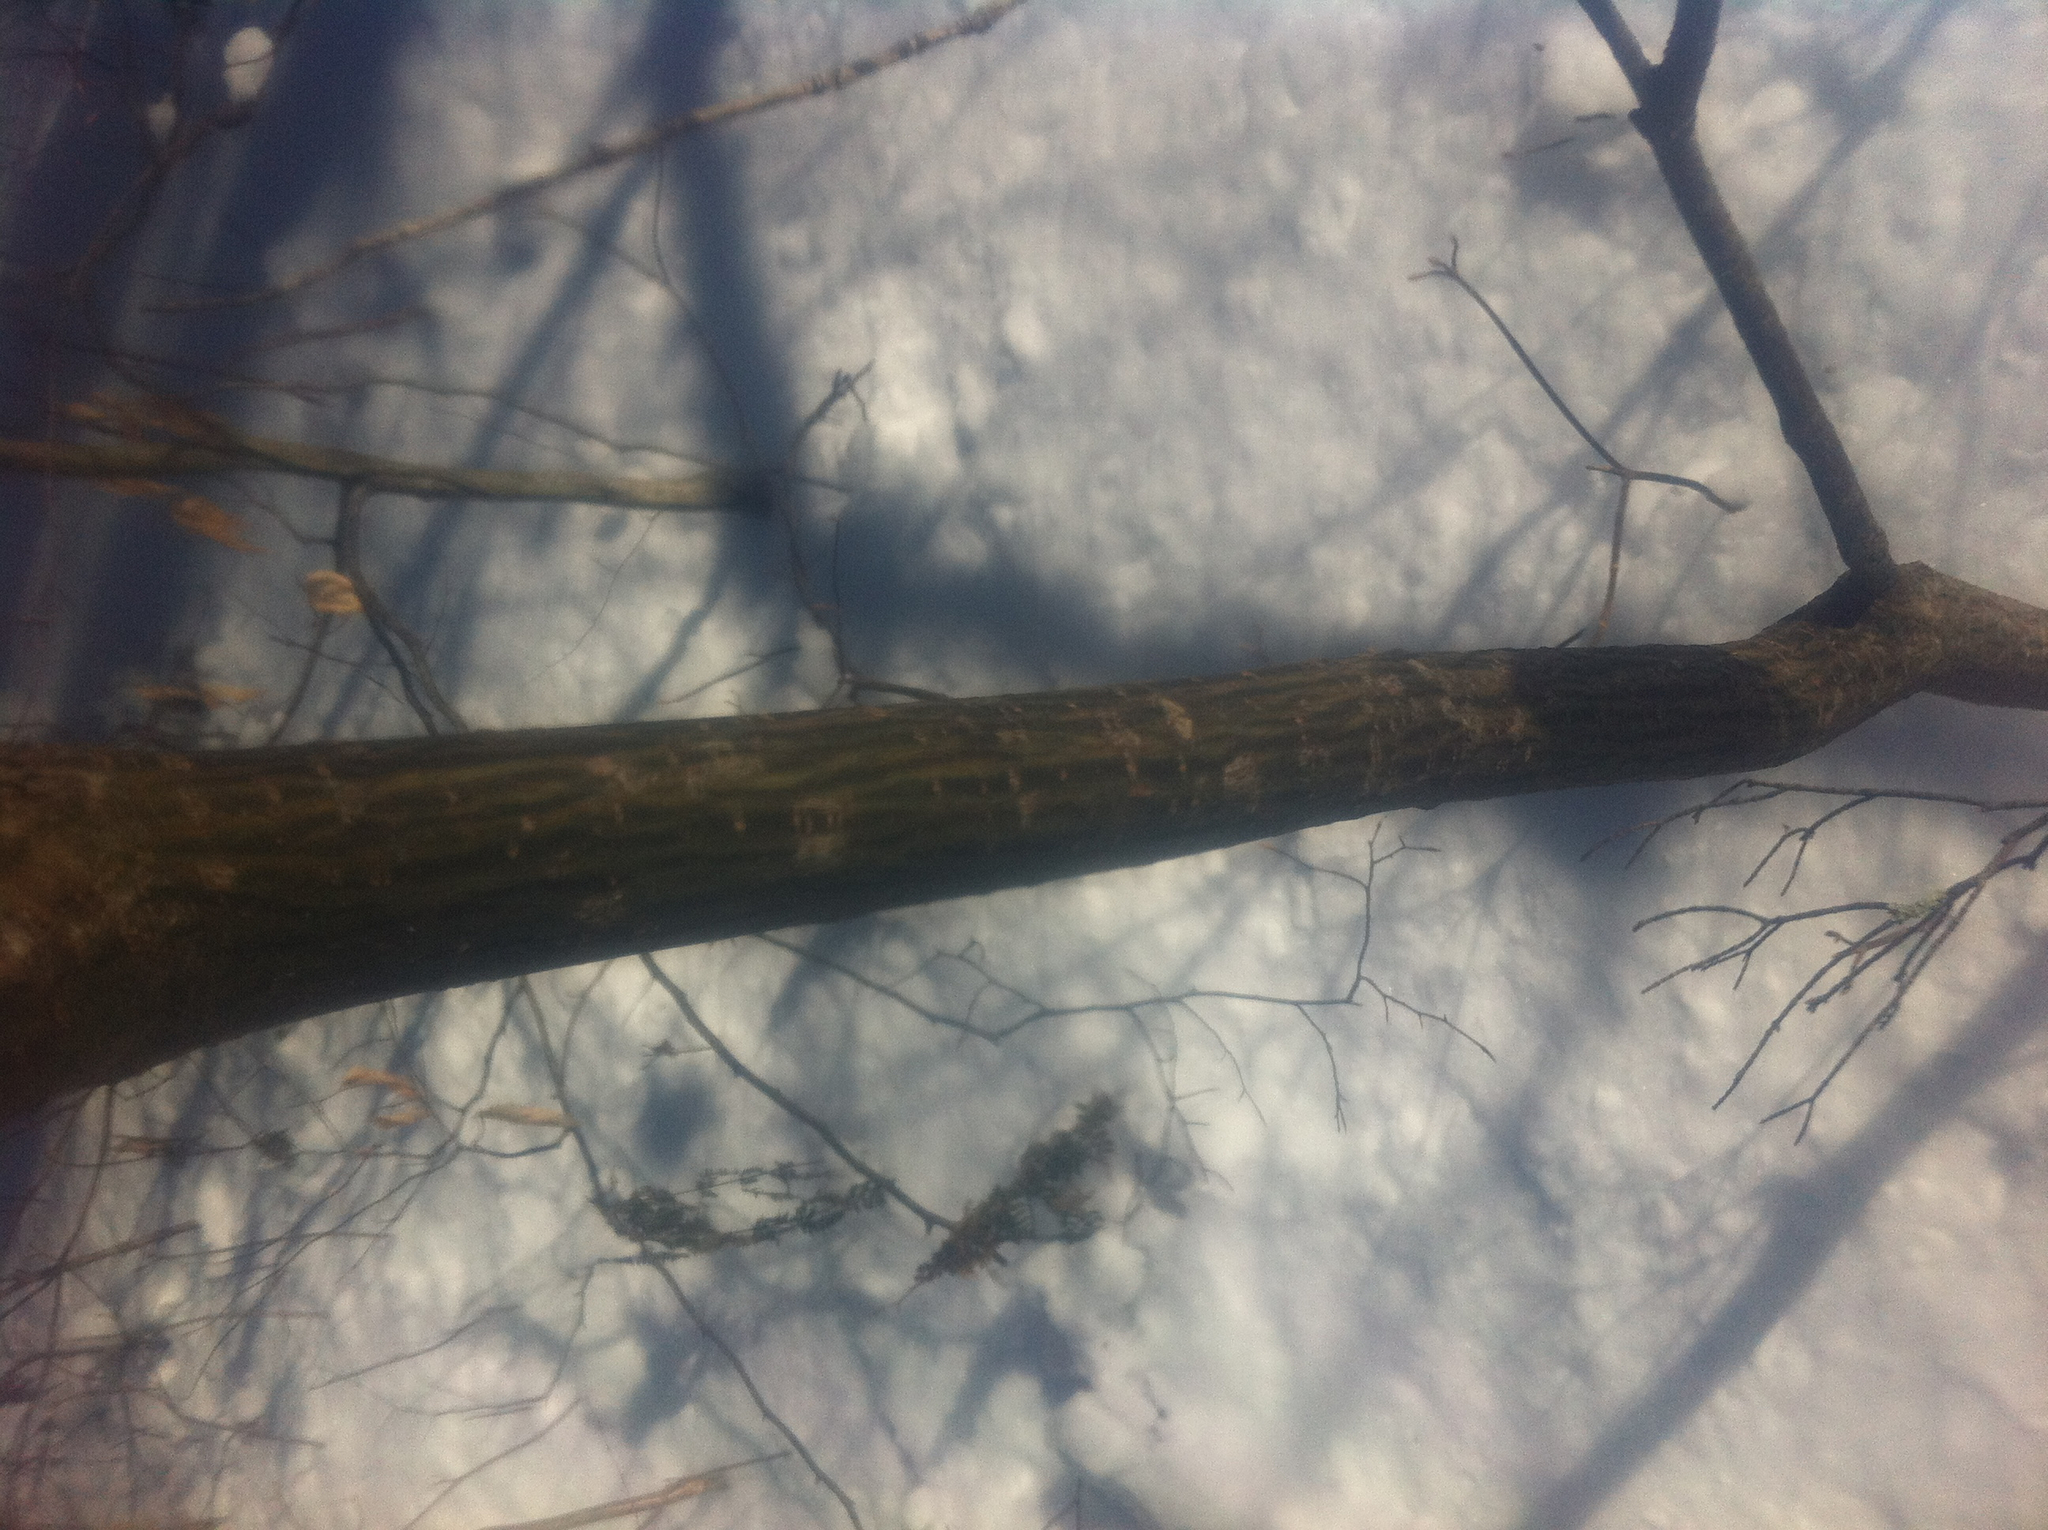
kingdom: Plantae
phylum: Tracheophyta
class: Magnoliopsida
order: Sapindales
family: Sapindaceae
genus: Acer
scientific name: Acer pensylvanicum
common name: Moosewood
